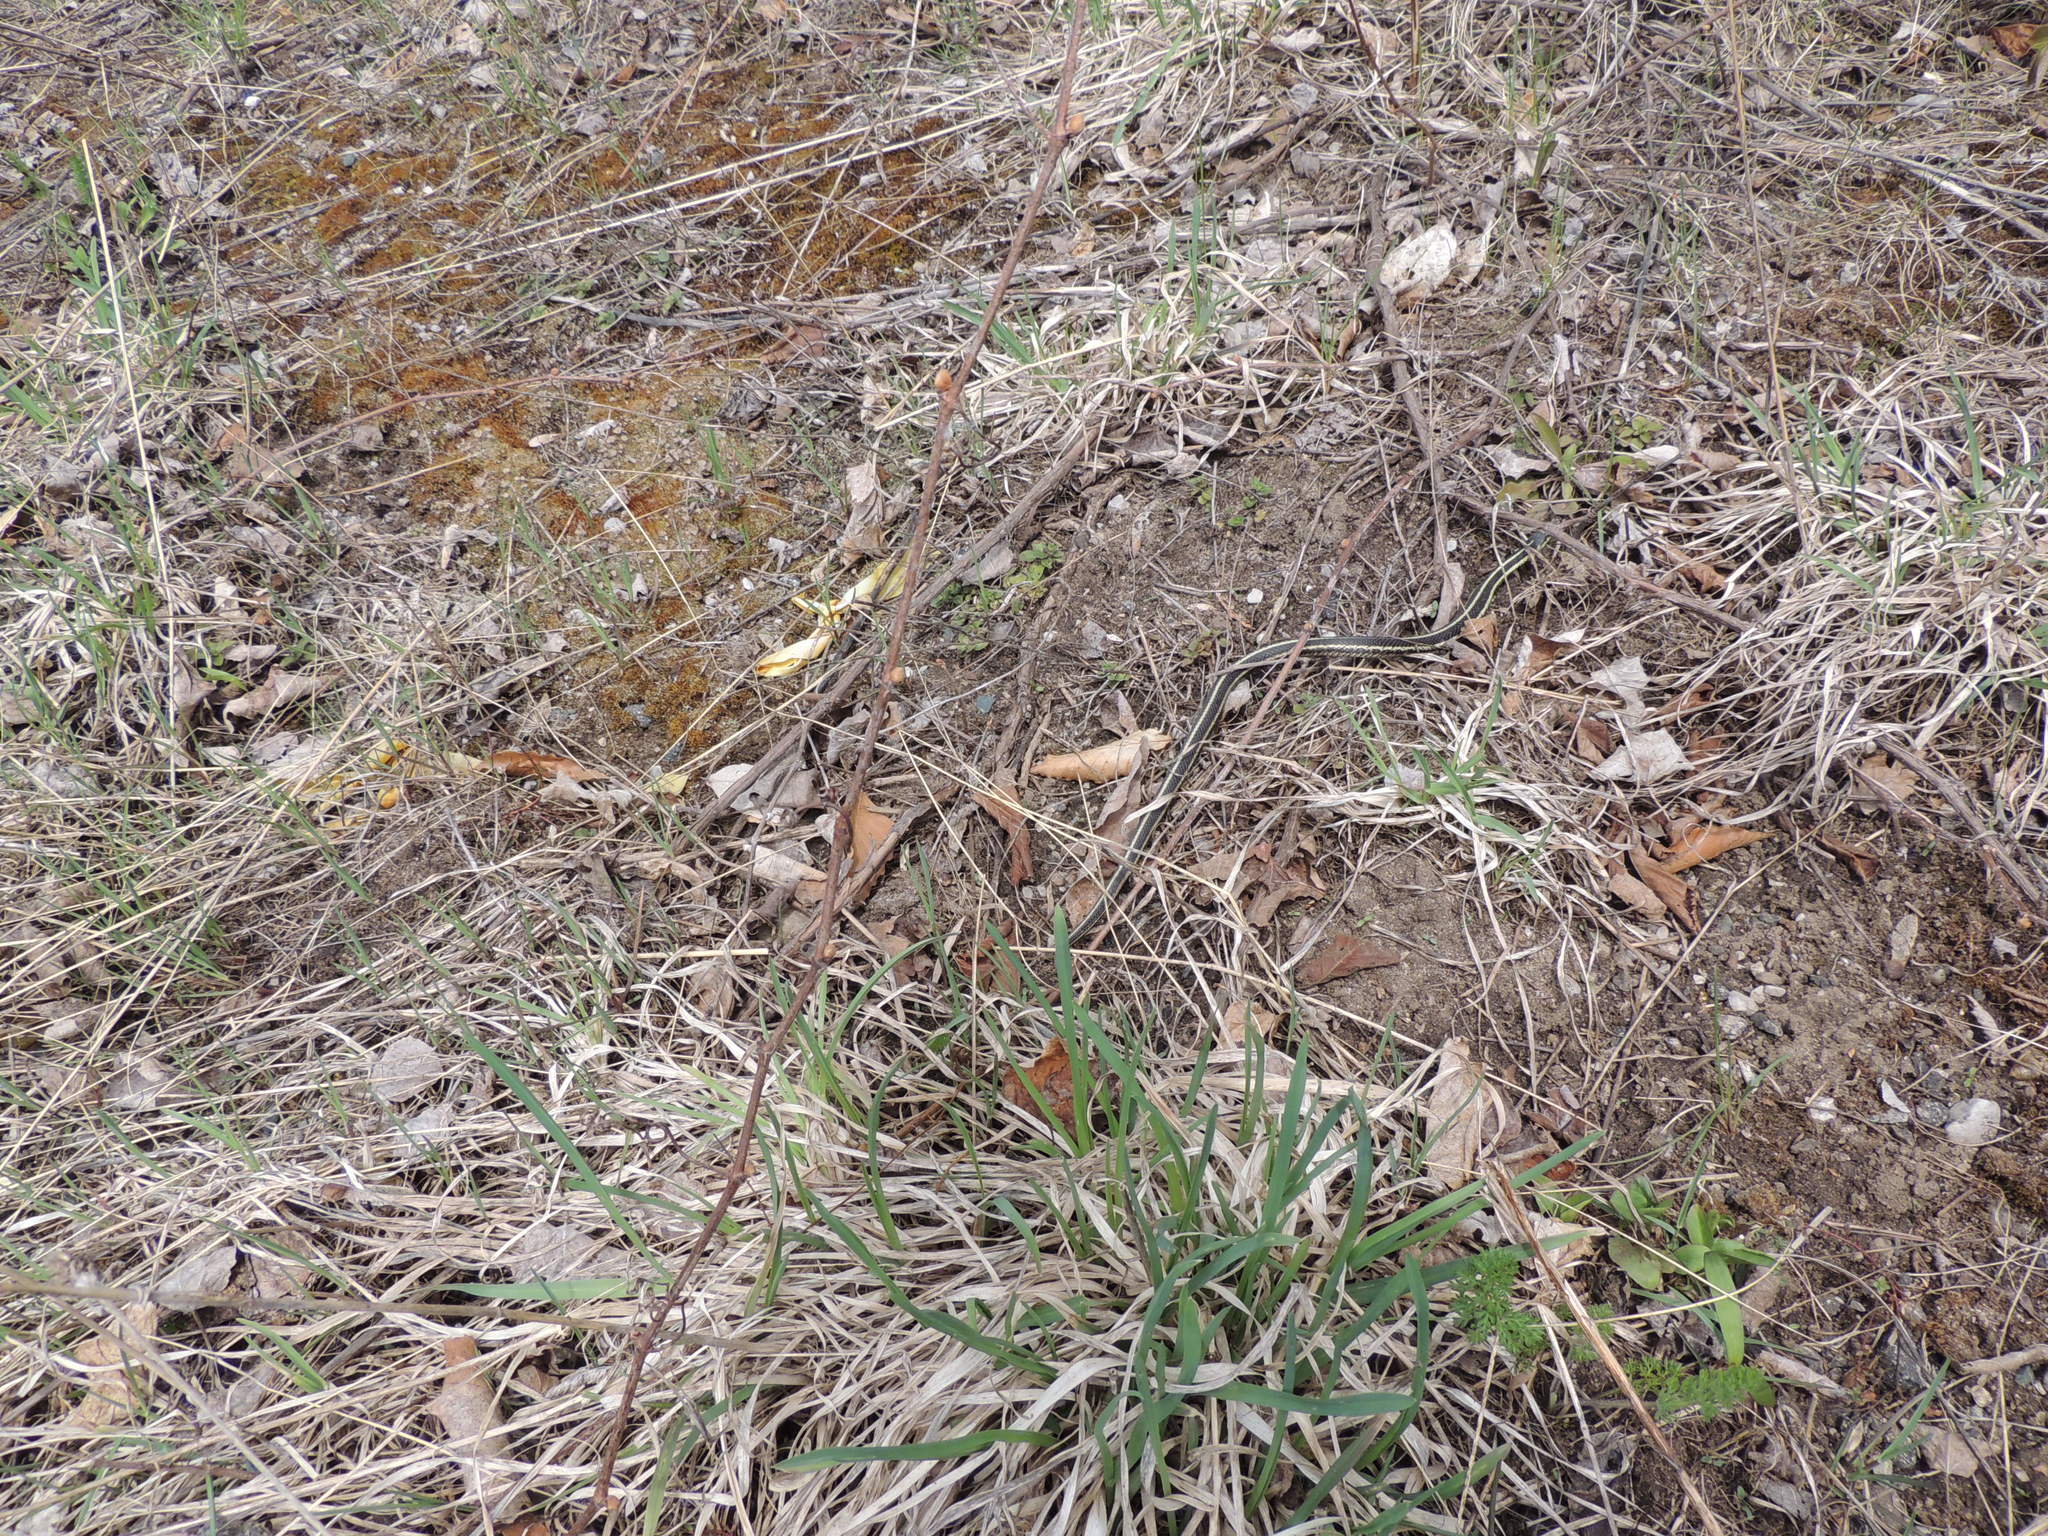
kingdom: Animalia
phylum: Chordata
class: Squamata
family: Colubridae
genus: Thamnophis
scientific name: Thamnophis sirtalis
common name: Common garter snake
